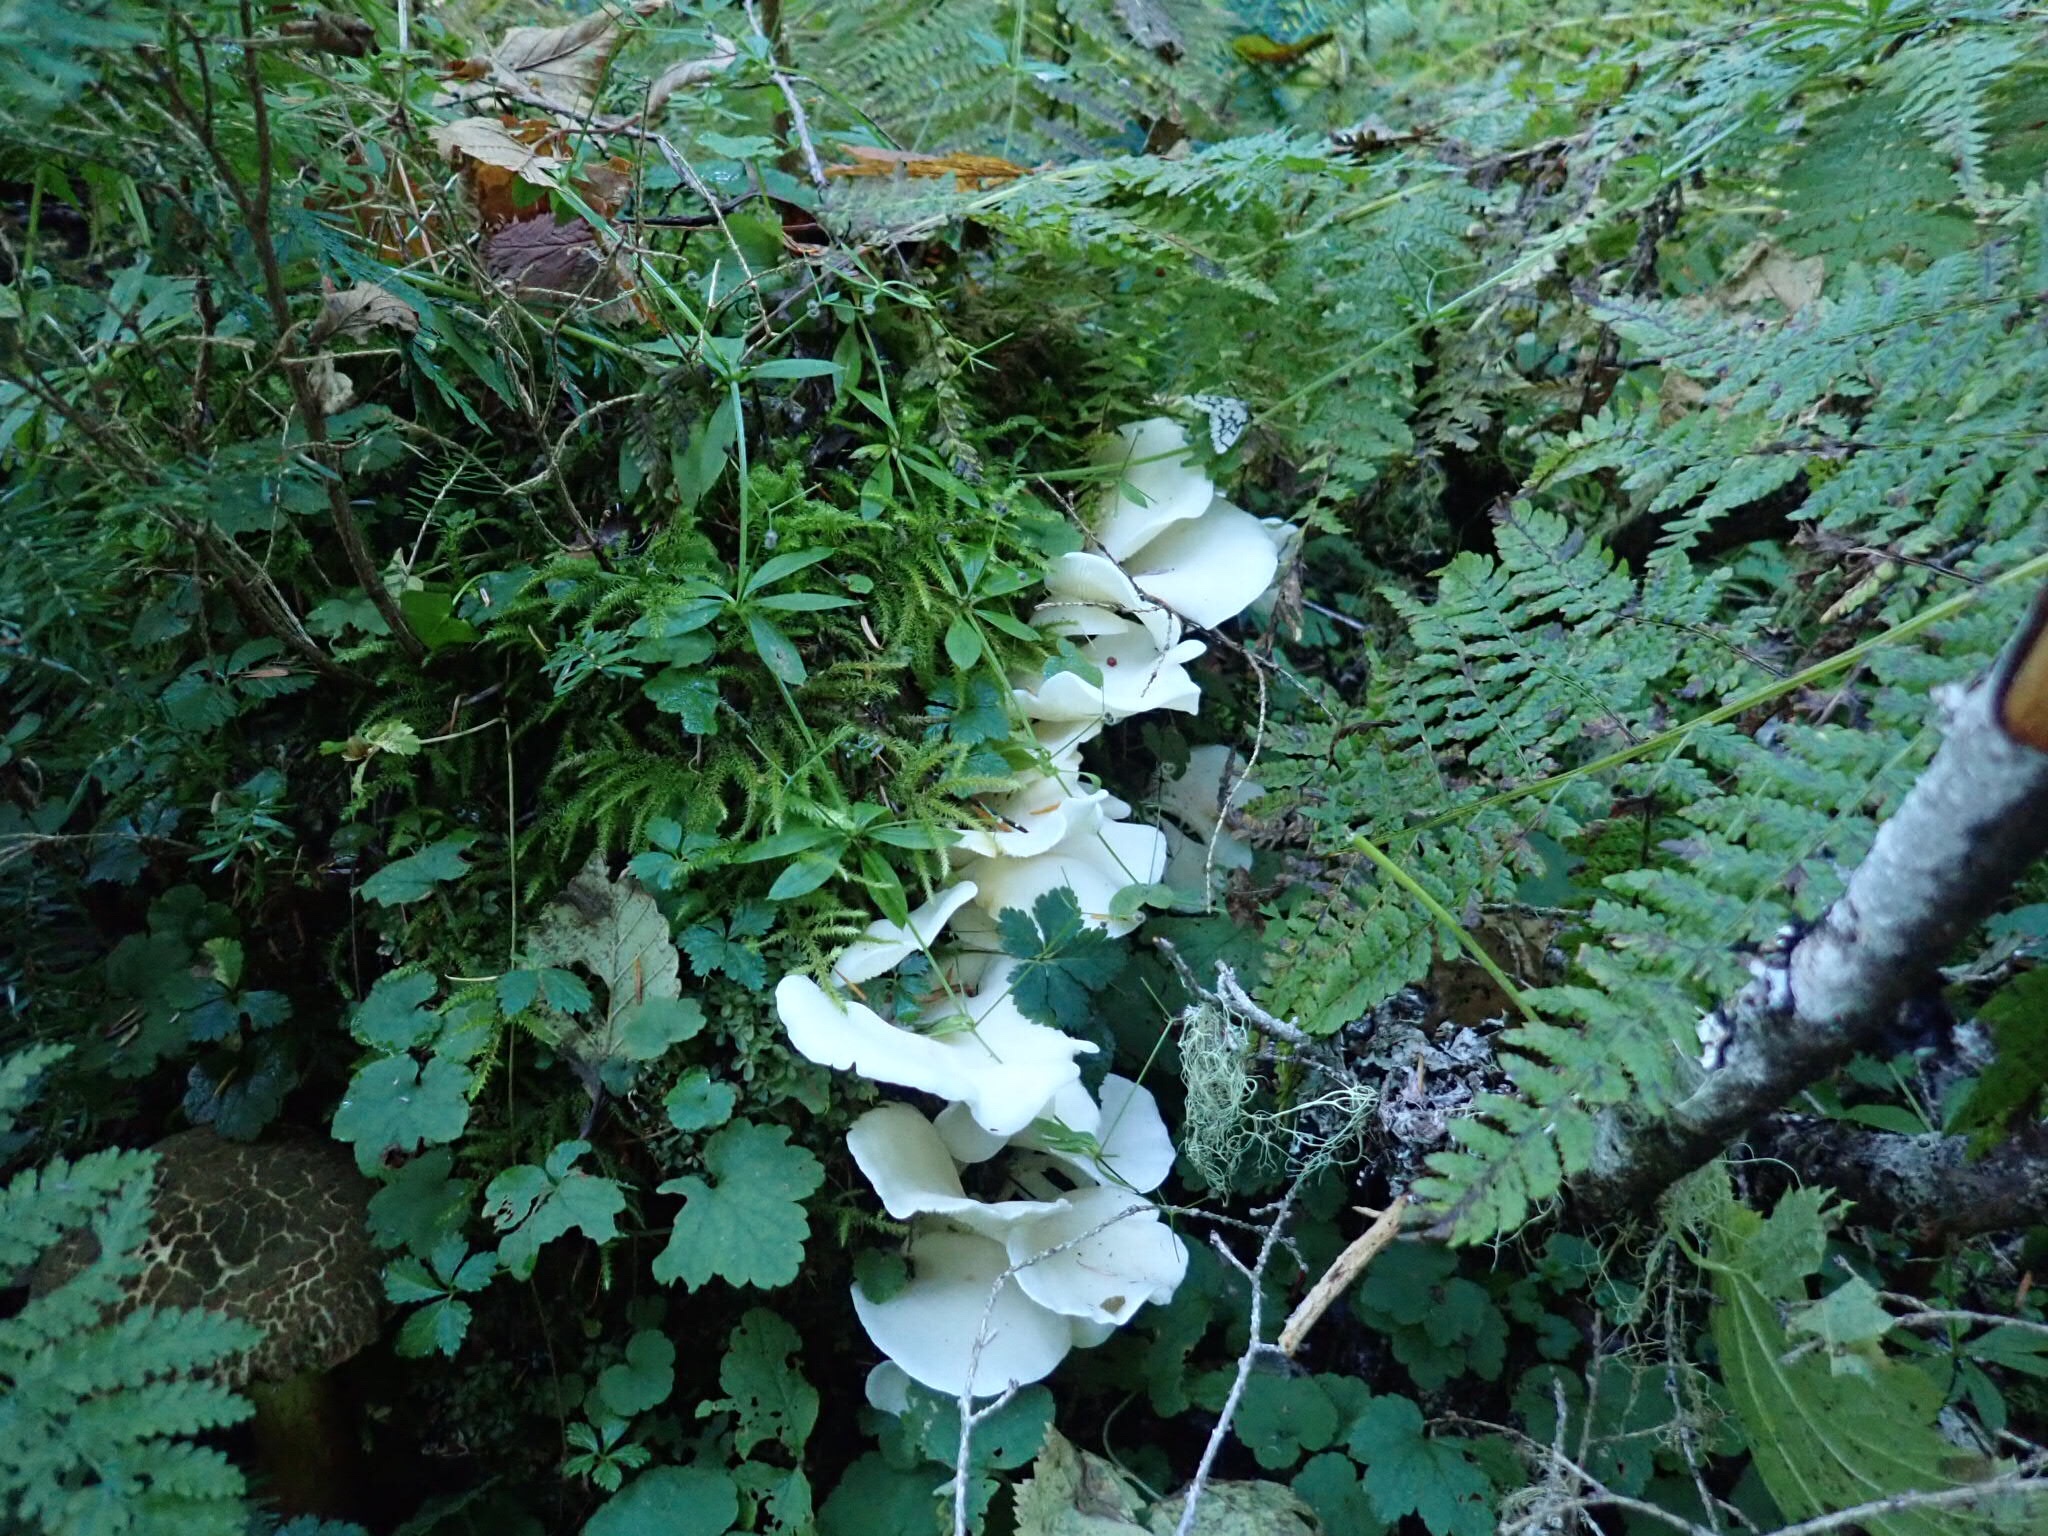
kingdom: Fungi
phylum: Basidiomycota
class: Agaricomycetes
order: Agaricales
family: Pleurotaceae
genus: Pleurotus
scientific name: Pleurotus ostreatus
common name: Oyster mushroom
